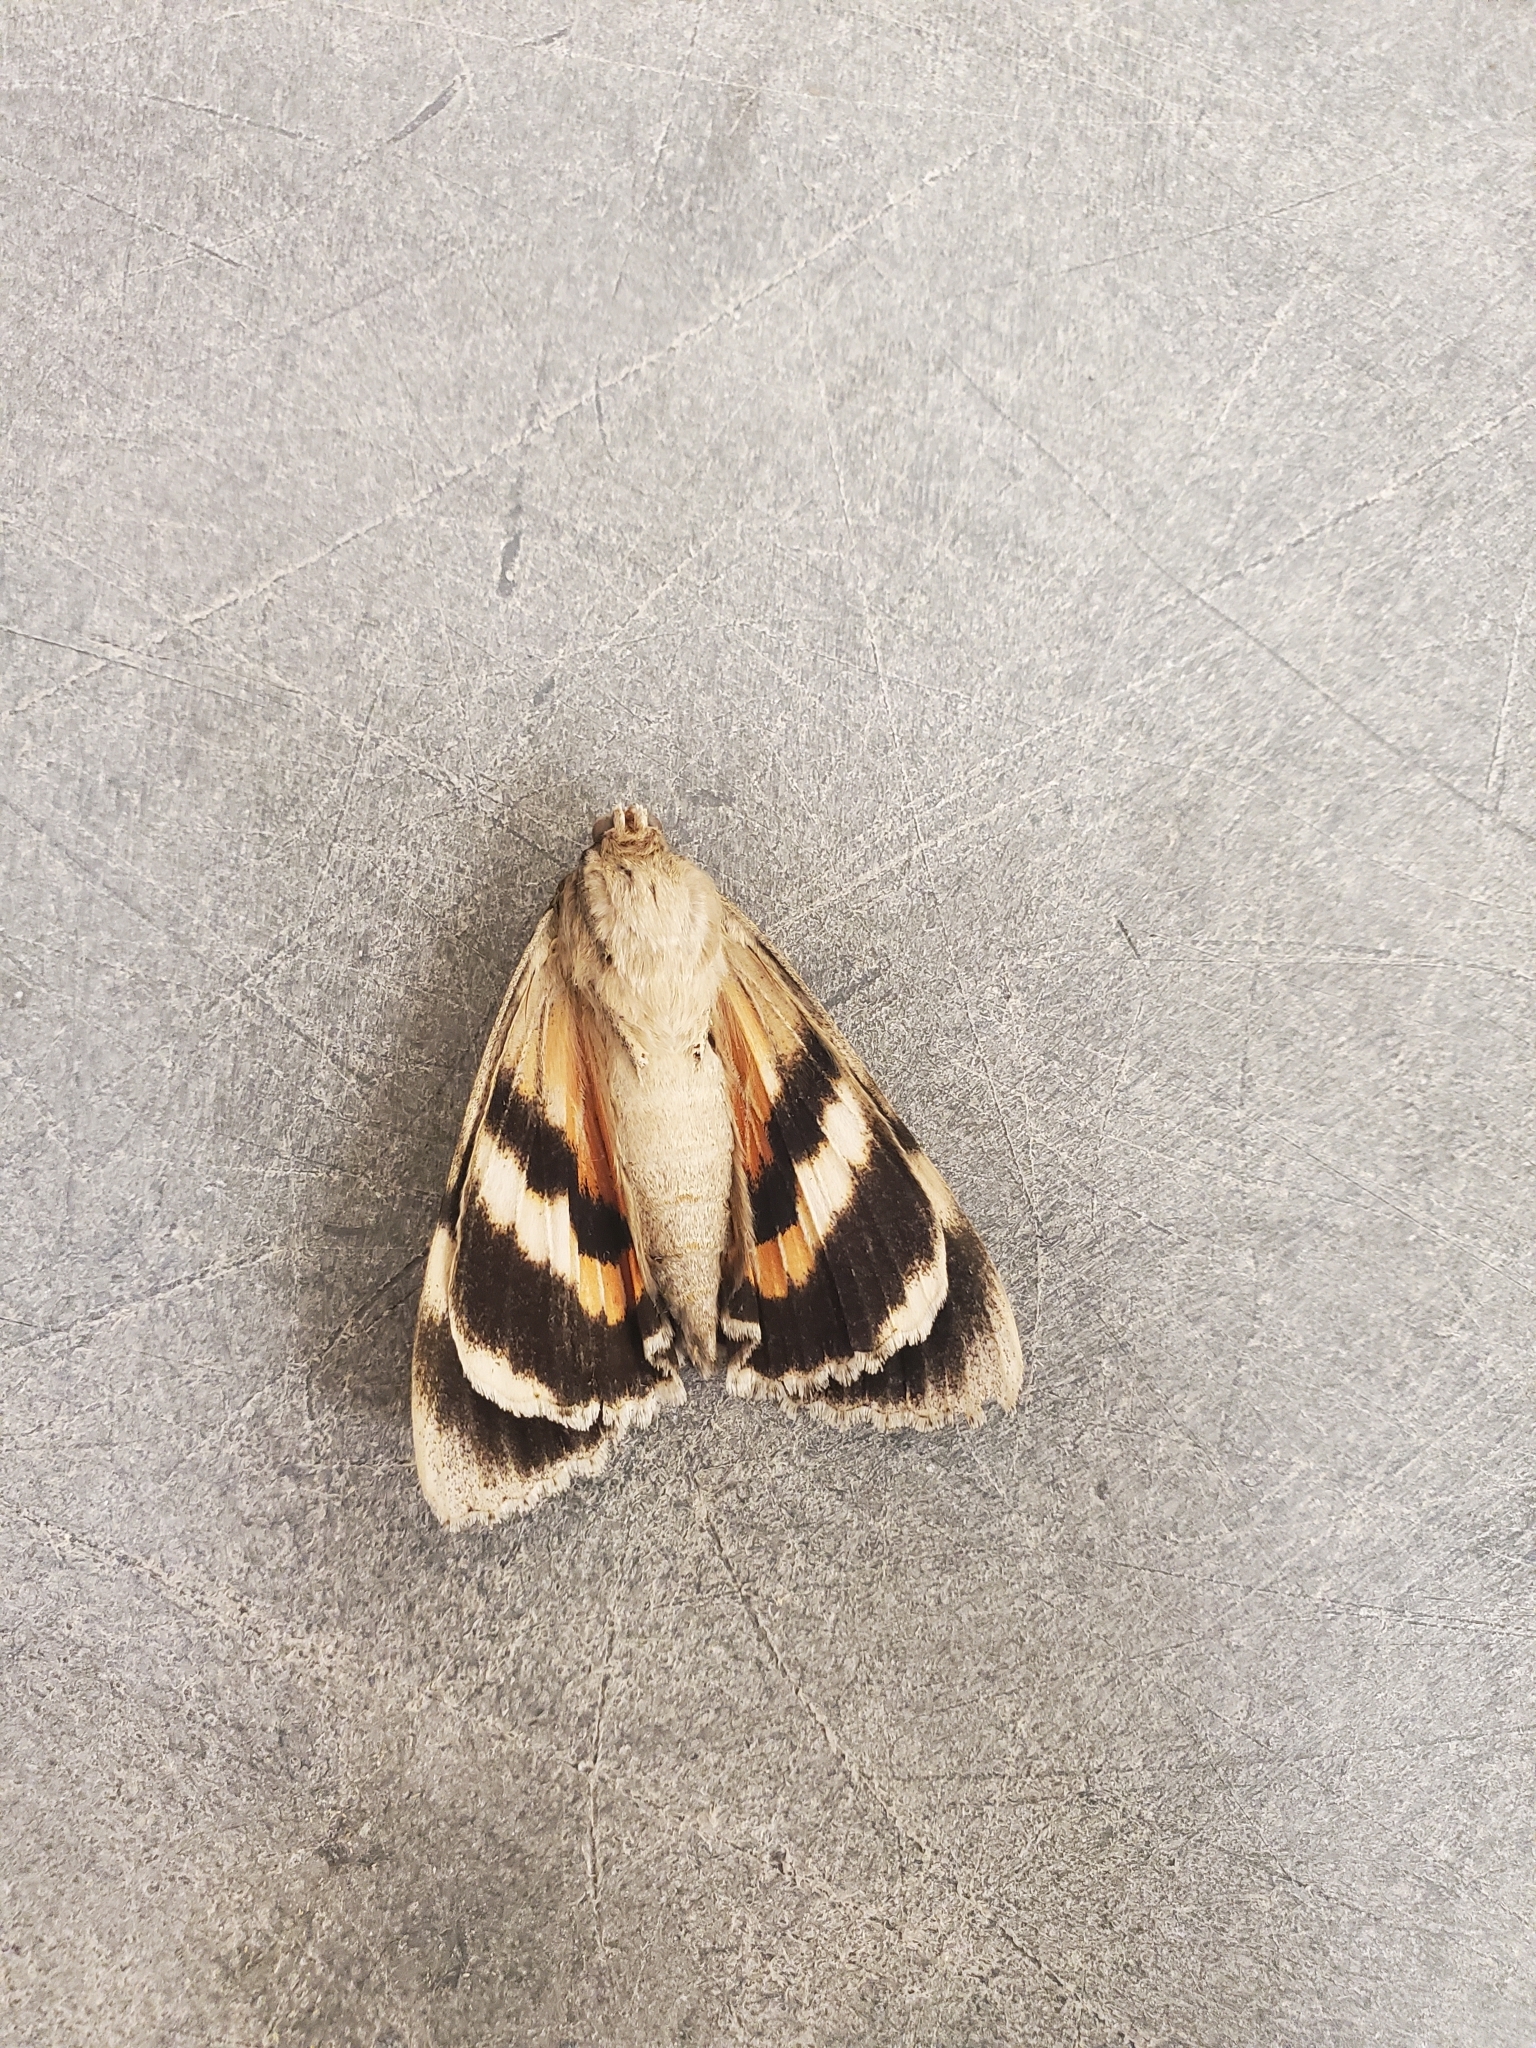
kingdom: Animalia
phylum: Arthropoda
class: Insecta
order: Lepidoptera
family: Erebidae
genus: Catocala
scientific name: Catocala junctura
